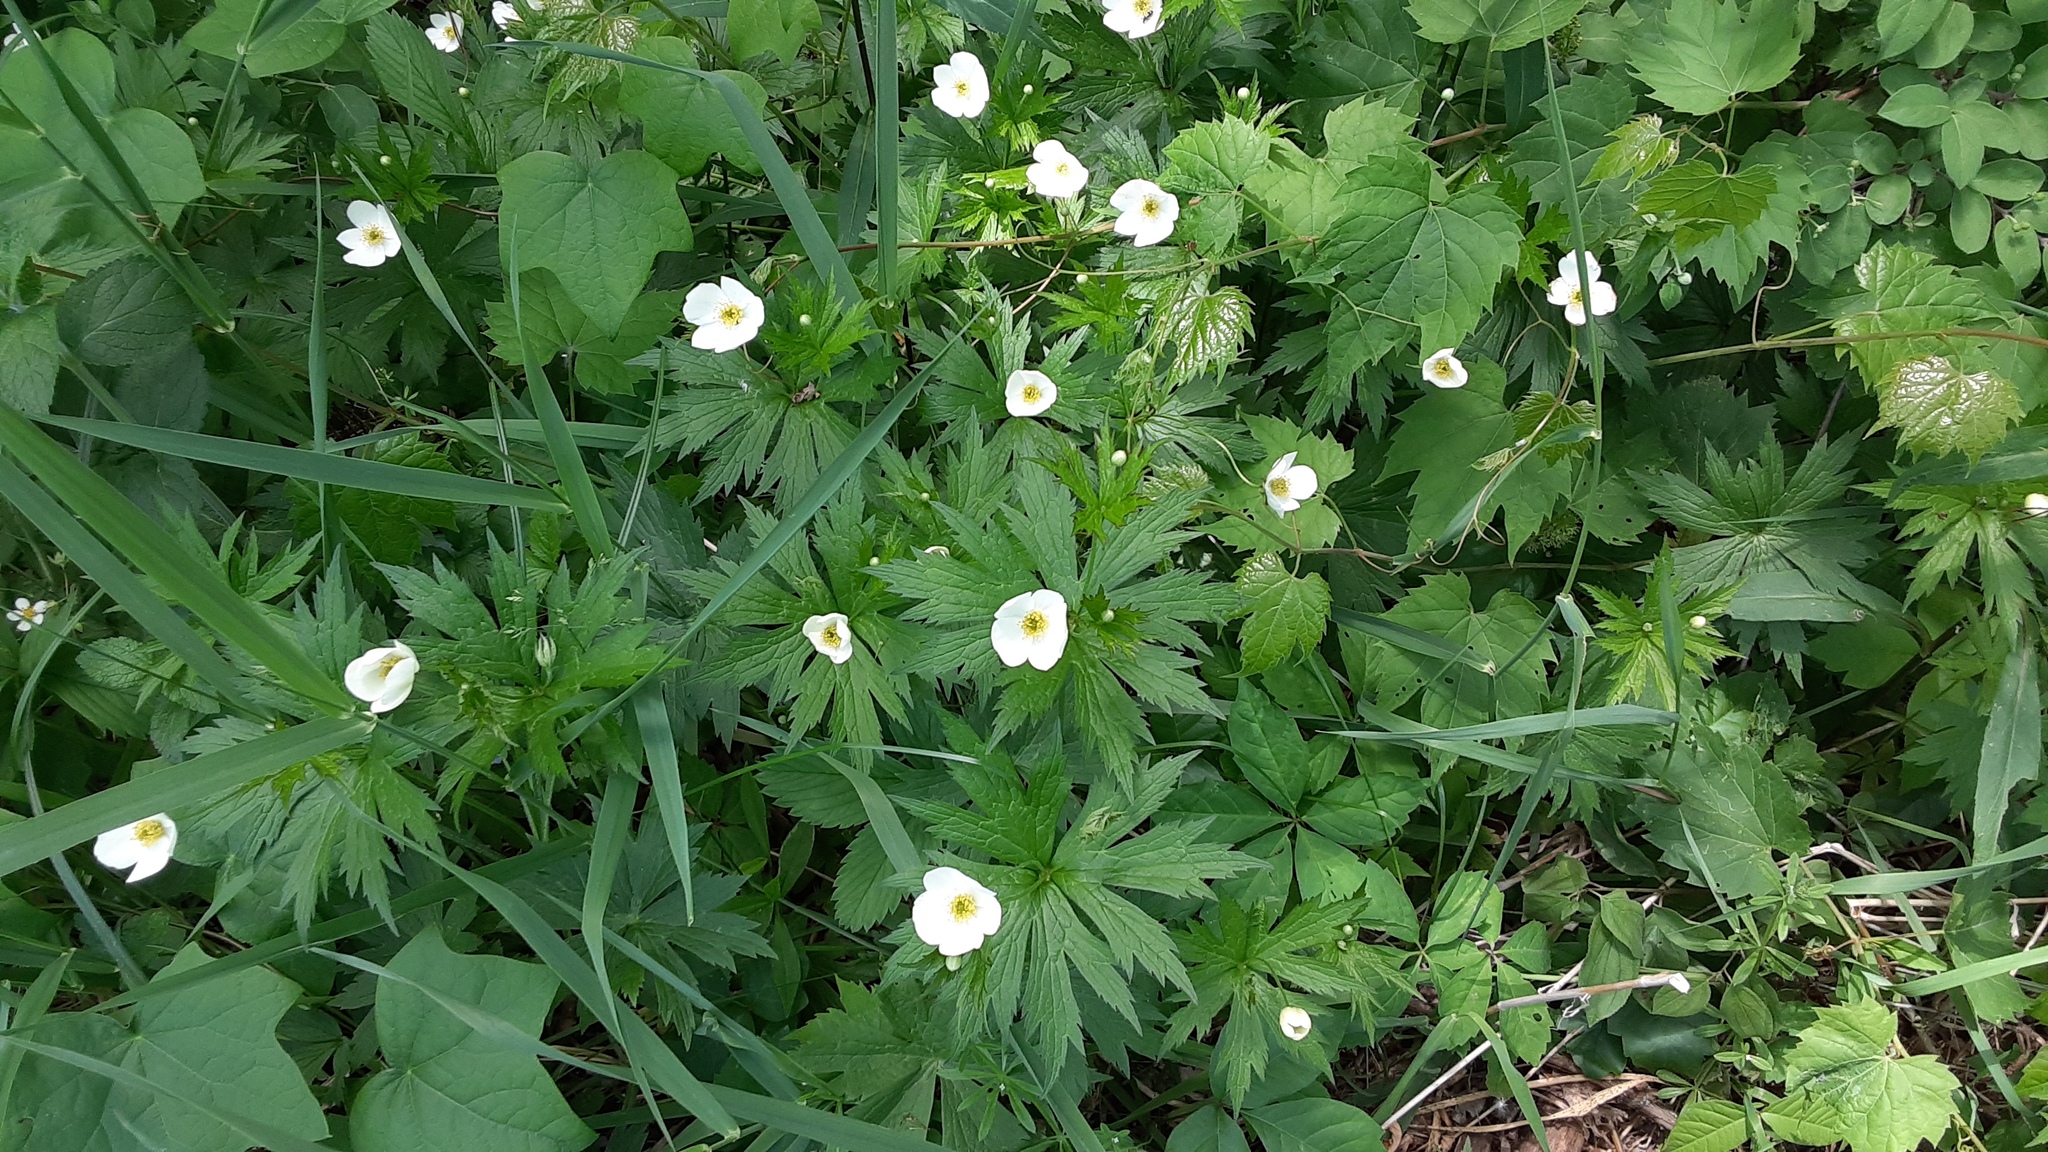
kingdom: Plantae
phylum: Tracheophyta
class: Magnoliopsida
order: Ranunculales
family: Ranunculaceae
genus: Anemonastrum
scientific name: Anemonastrum canadense
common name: Canada anemone
